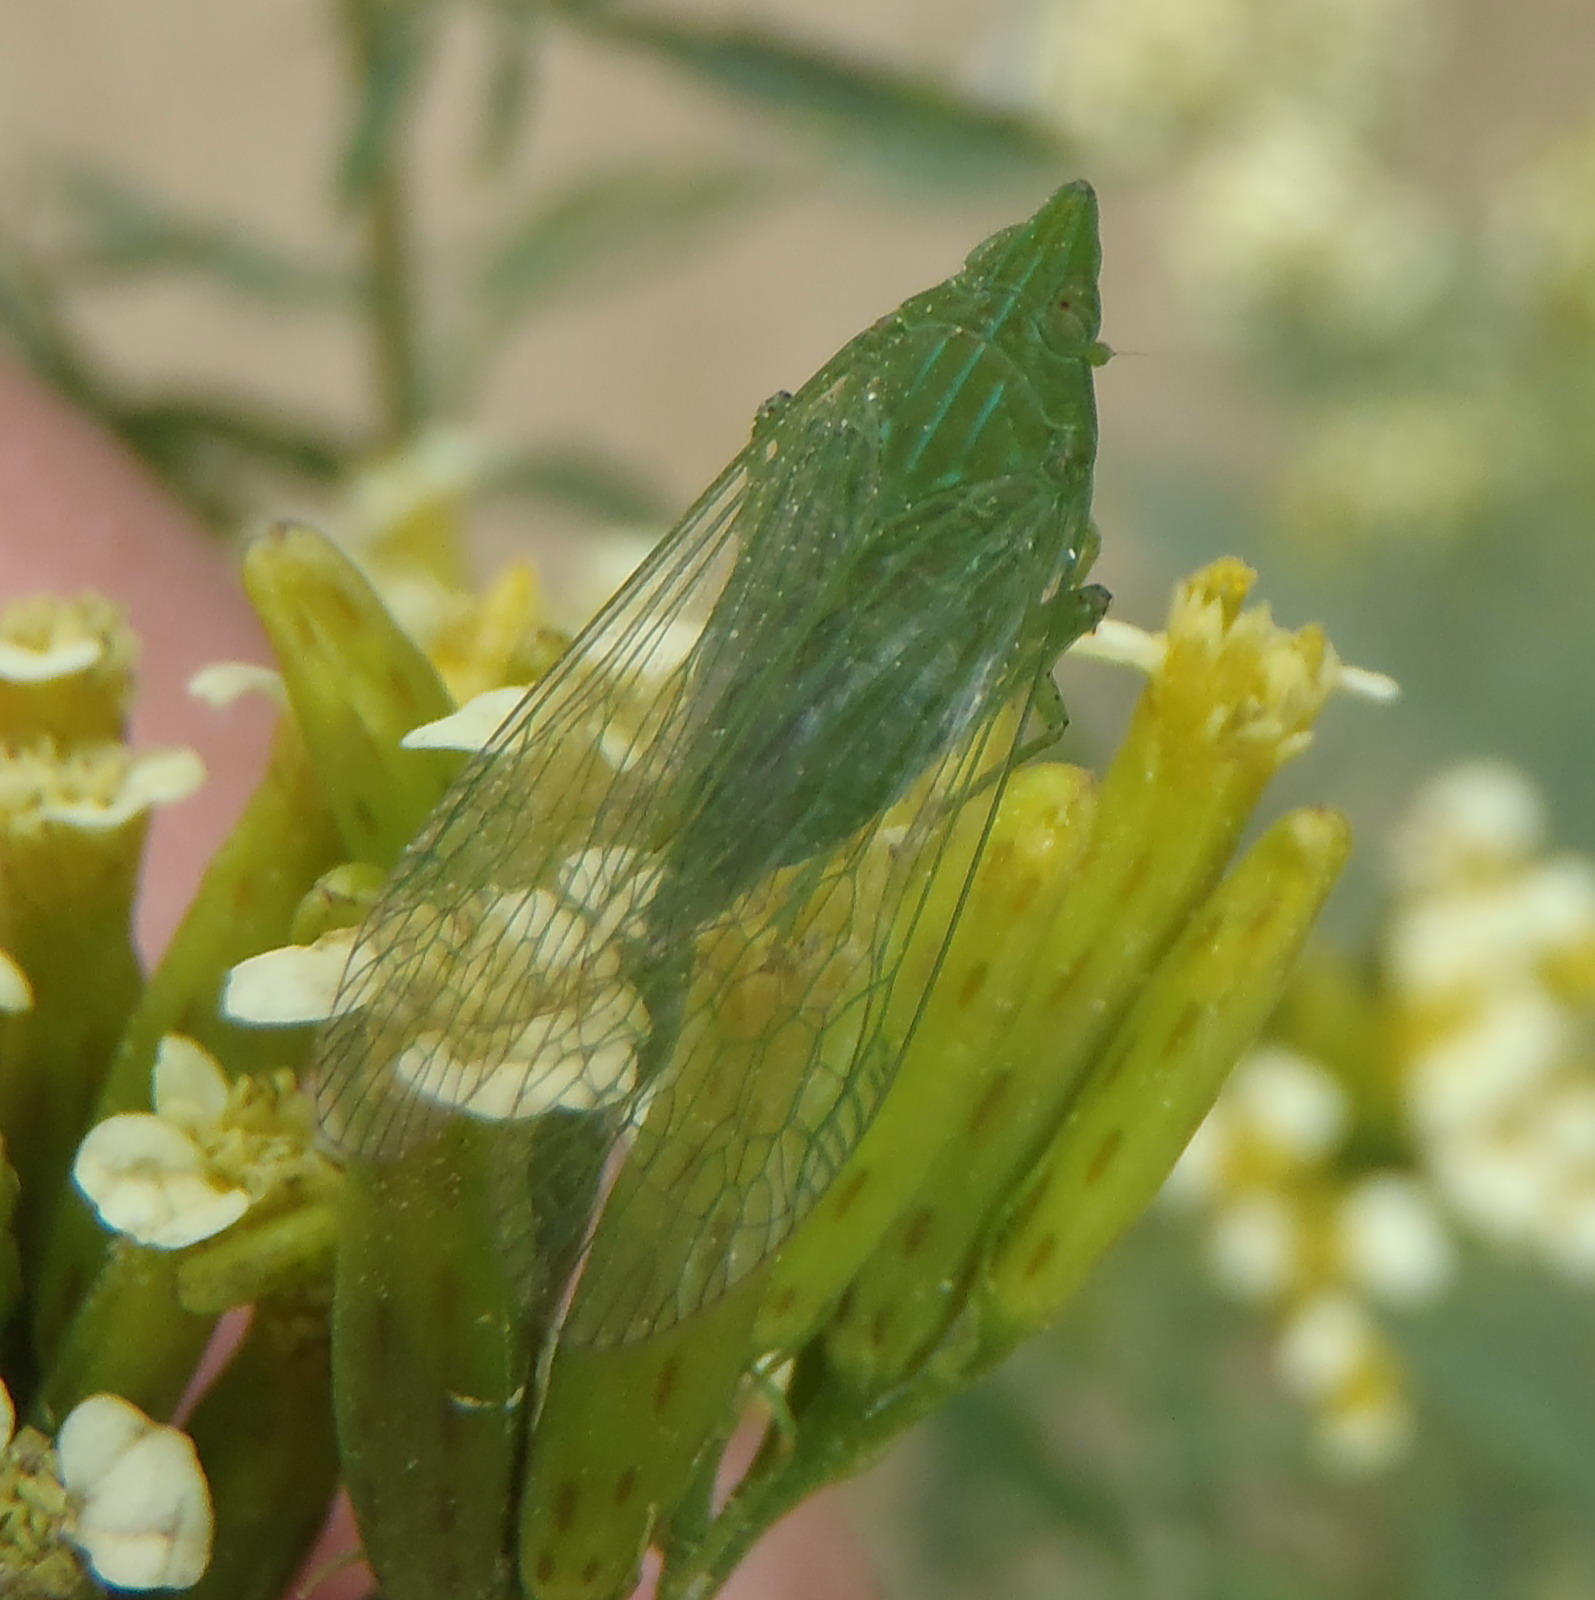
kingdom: Animalia
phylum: Arthropoda
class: Insecta
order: Hemiptera
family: Dictyopharidae
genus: Pseudophanella
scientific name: Pseudophanella casta
